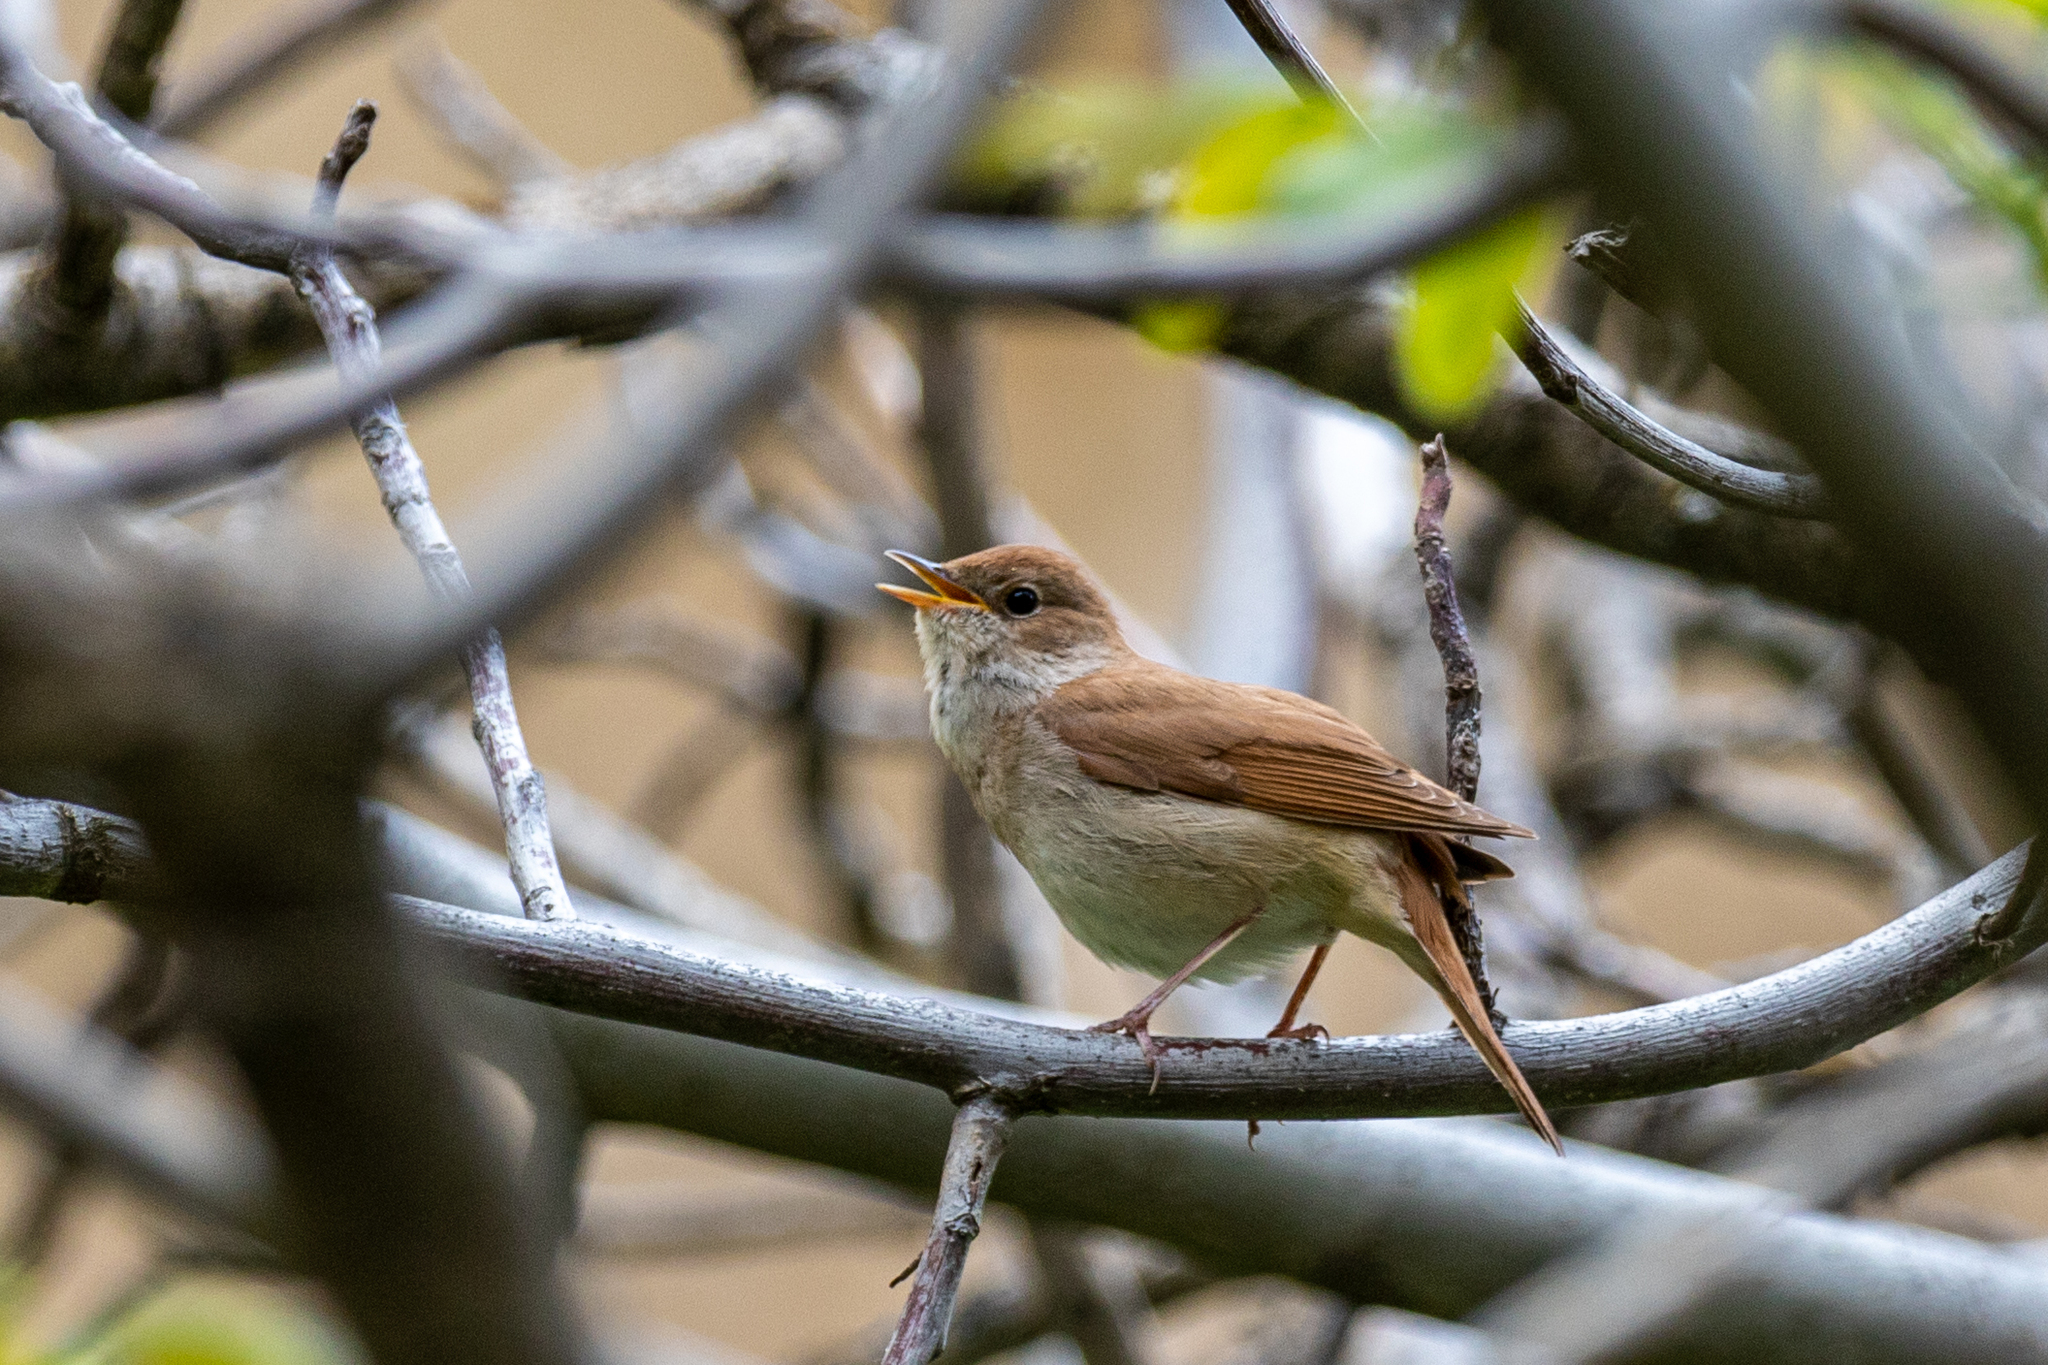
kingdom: Animalia
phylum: Chordata
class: Aves
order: Passeriformes
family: Muscicapidae
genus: Luscinia
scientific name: Luscinia megarhynchos
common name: Common nightingale
